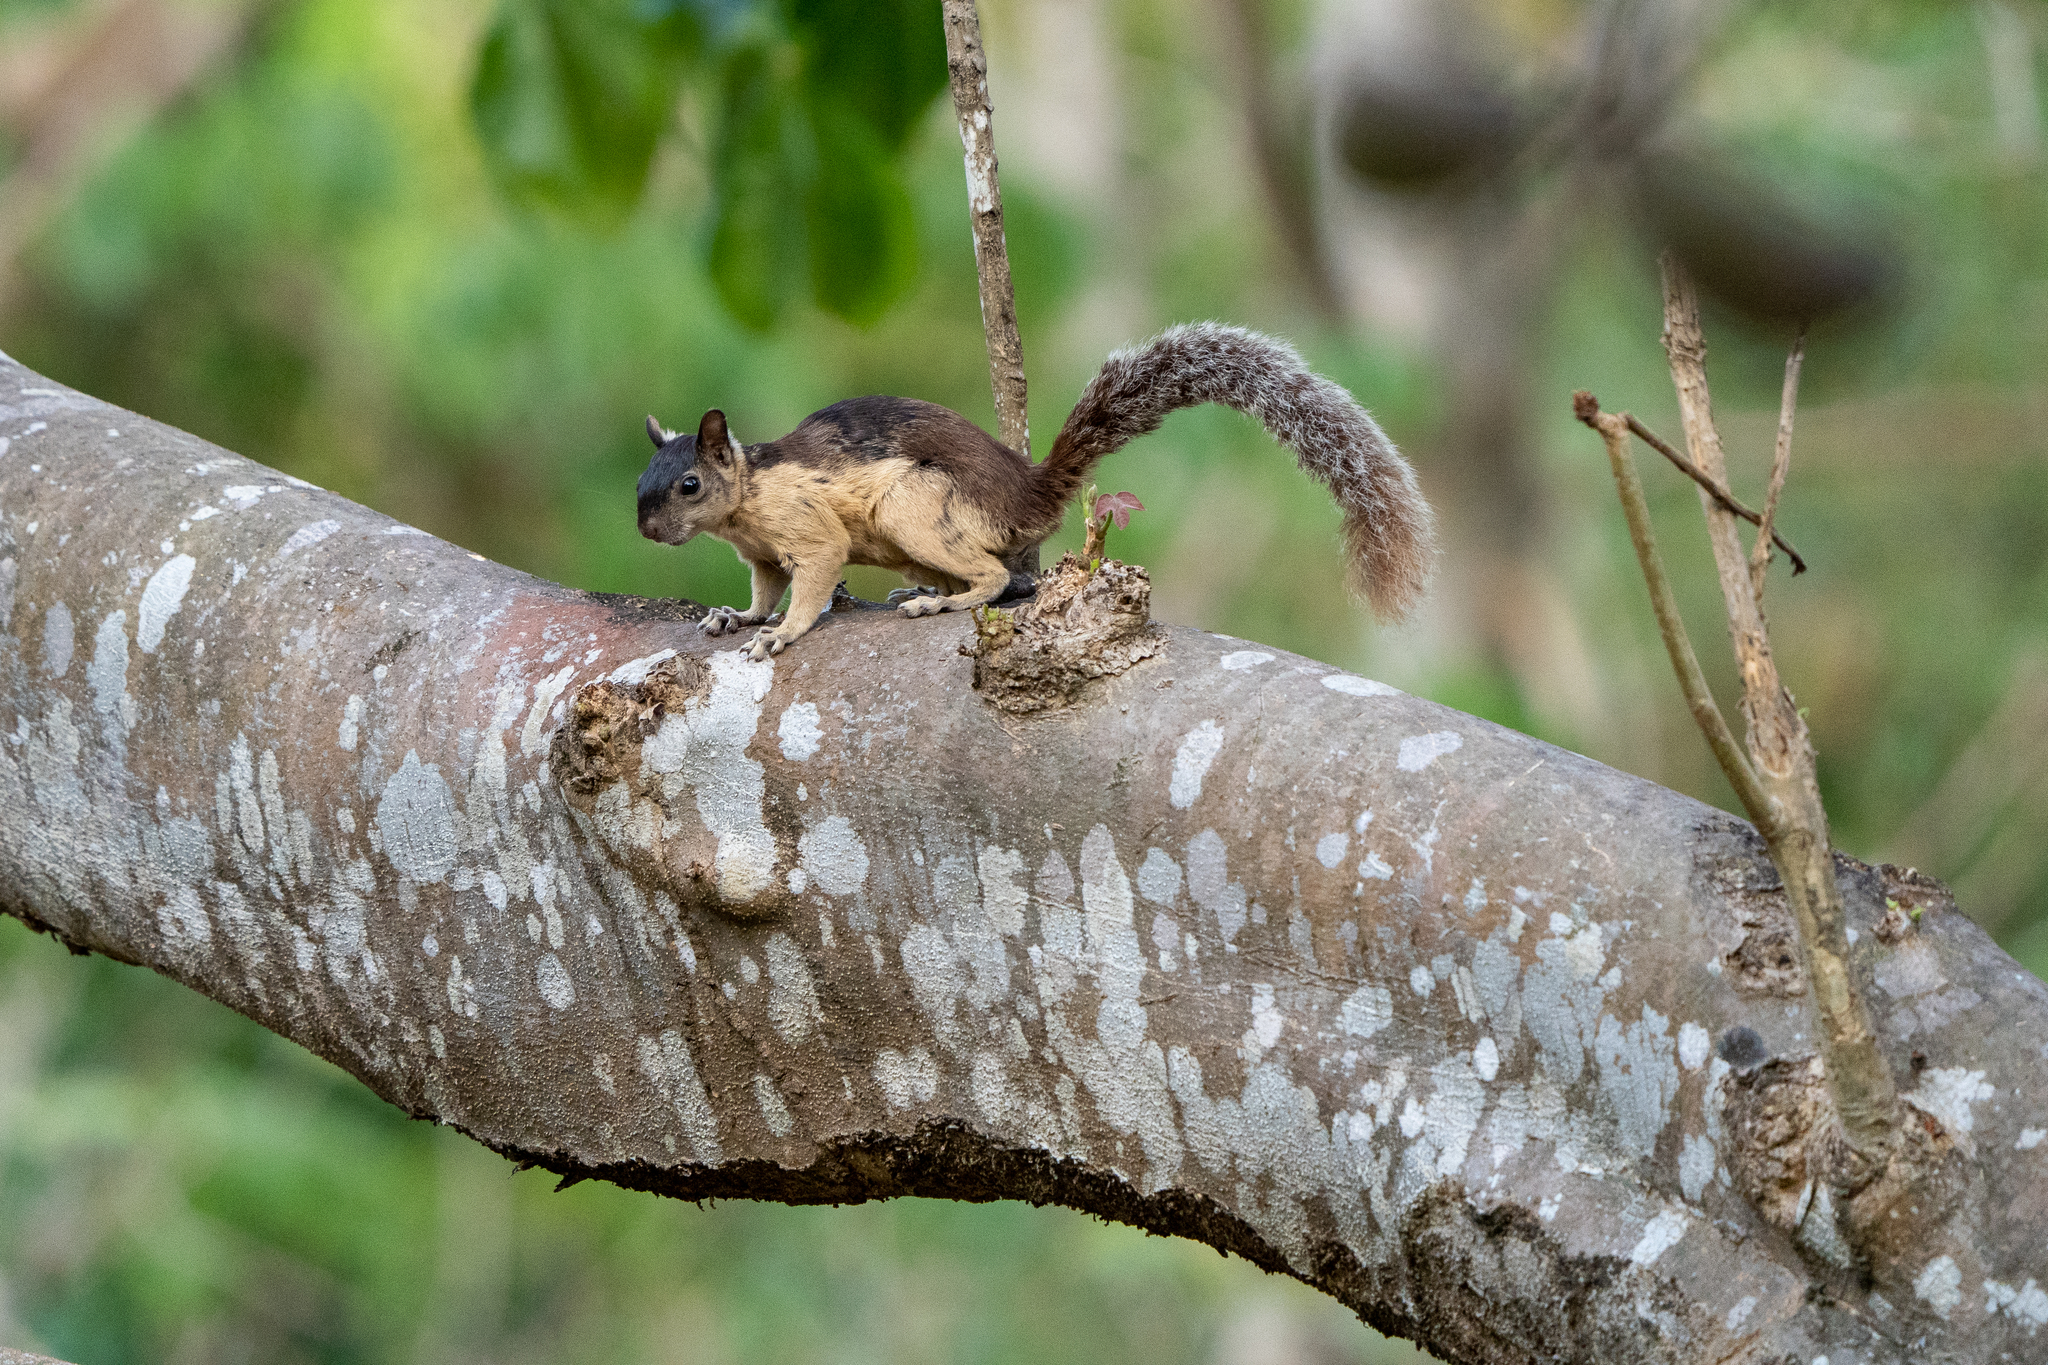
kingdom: Animalia
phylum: Chordata
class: Mammalia
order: Rodentia
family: Sciuridae
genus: Sciurus
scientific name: Sciurus variegatoides
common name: Variegated squirrel
